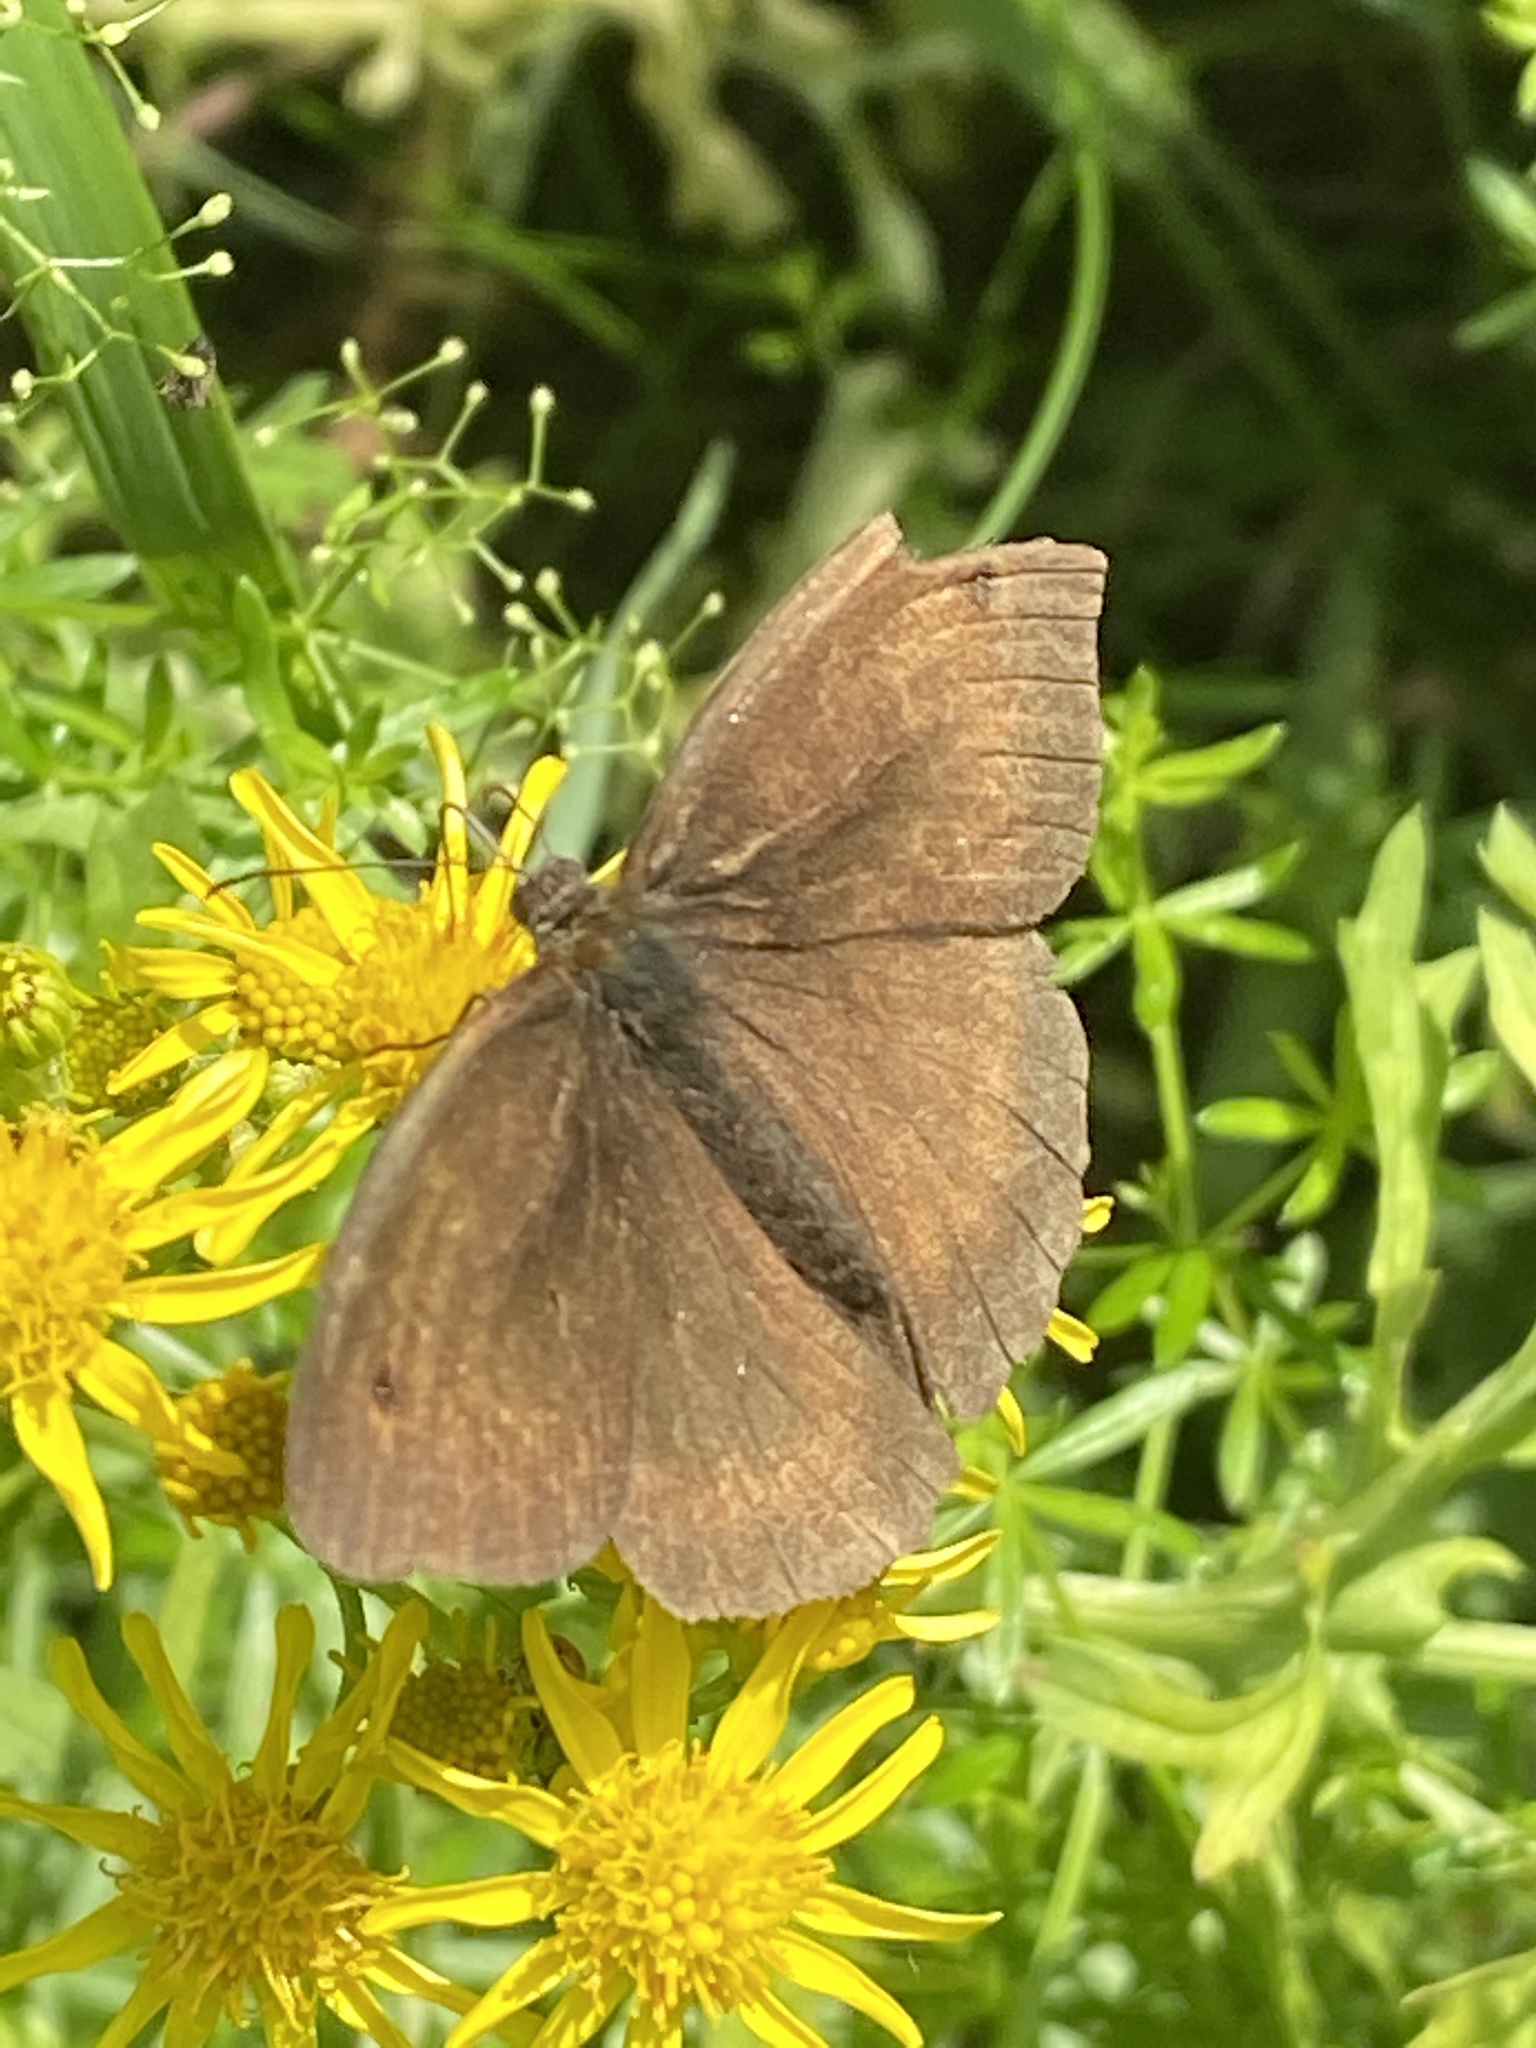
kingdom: Animalia
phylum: Arthropoda
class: Insecta
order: Lepidoptera
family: Nymphalidae
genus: Maniola
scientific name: Maniola jurtina
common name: Meadow brown
